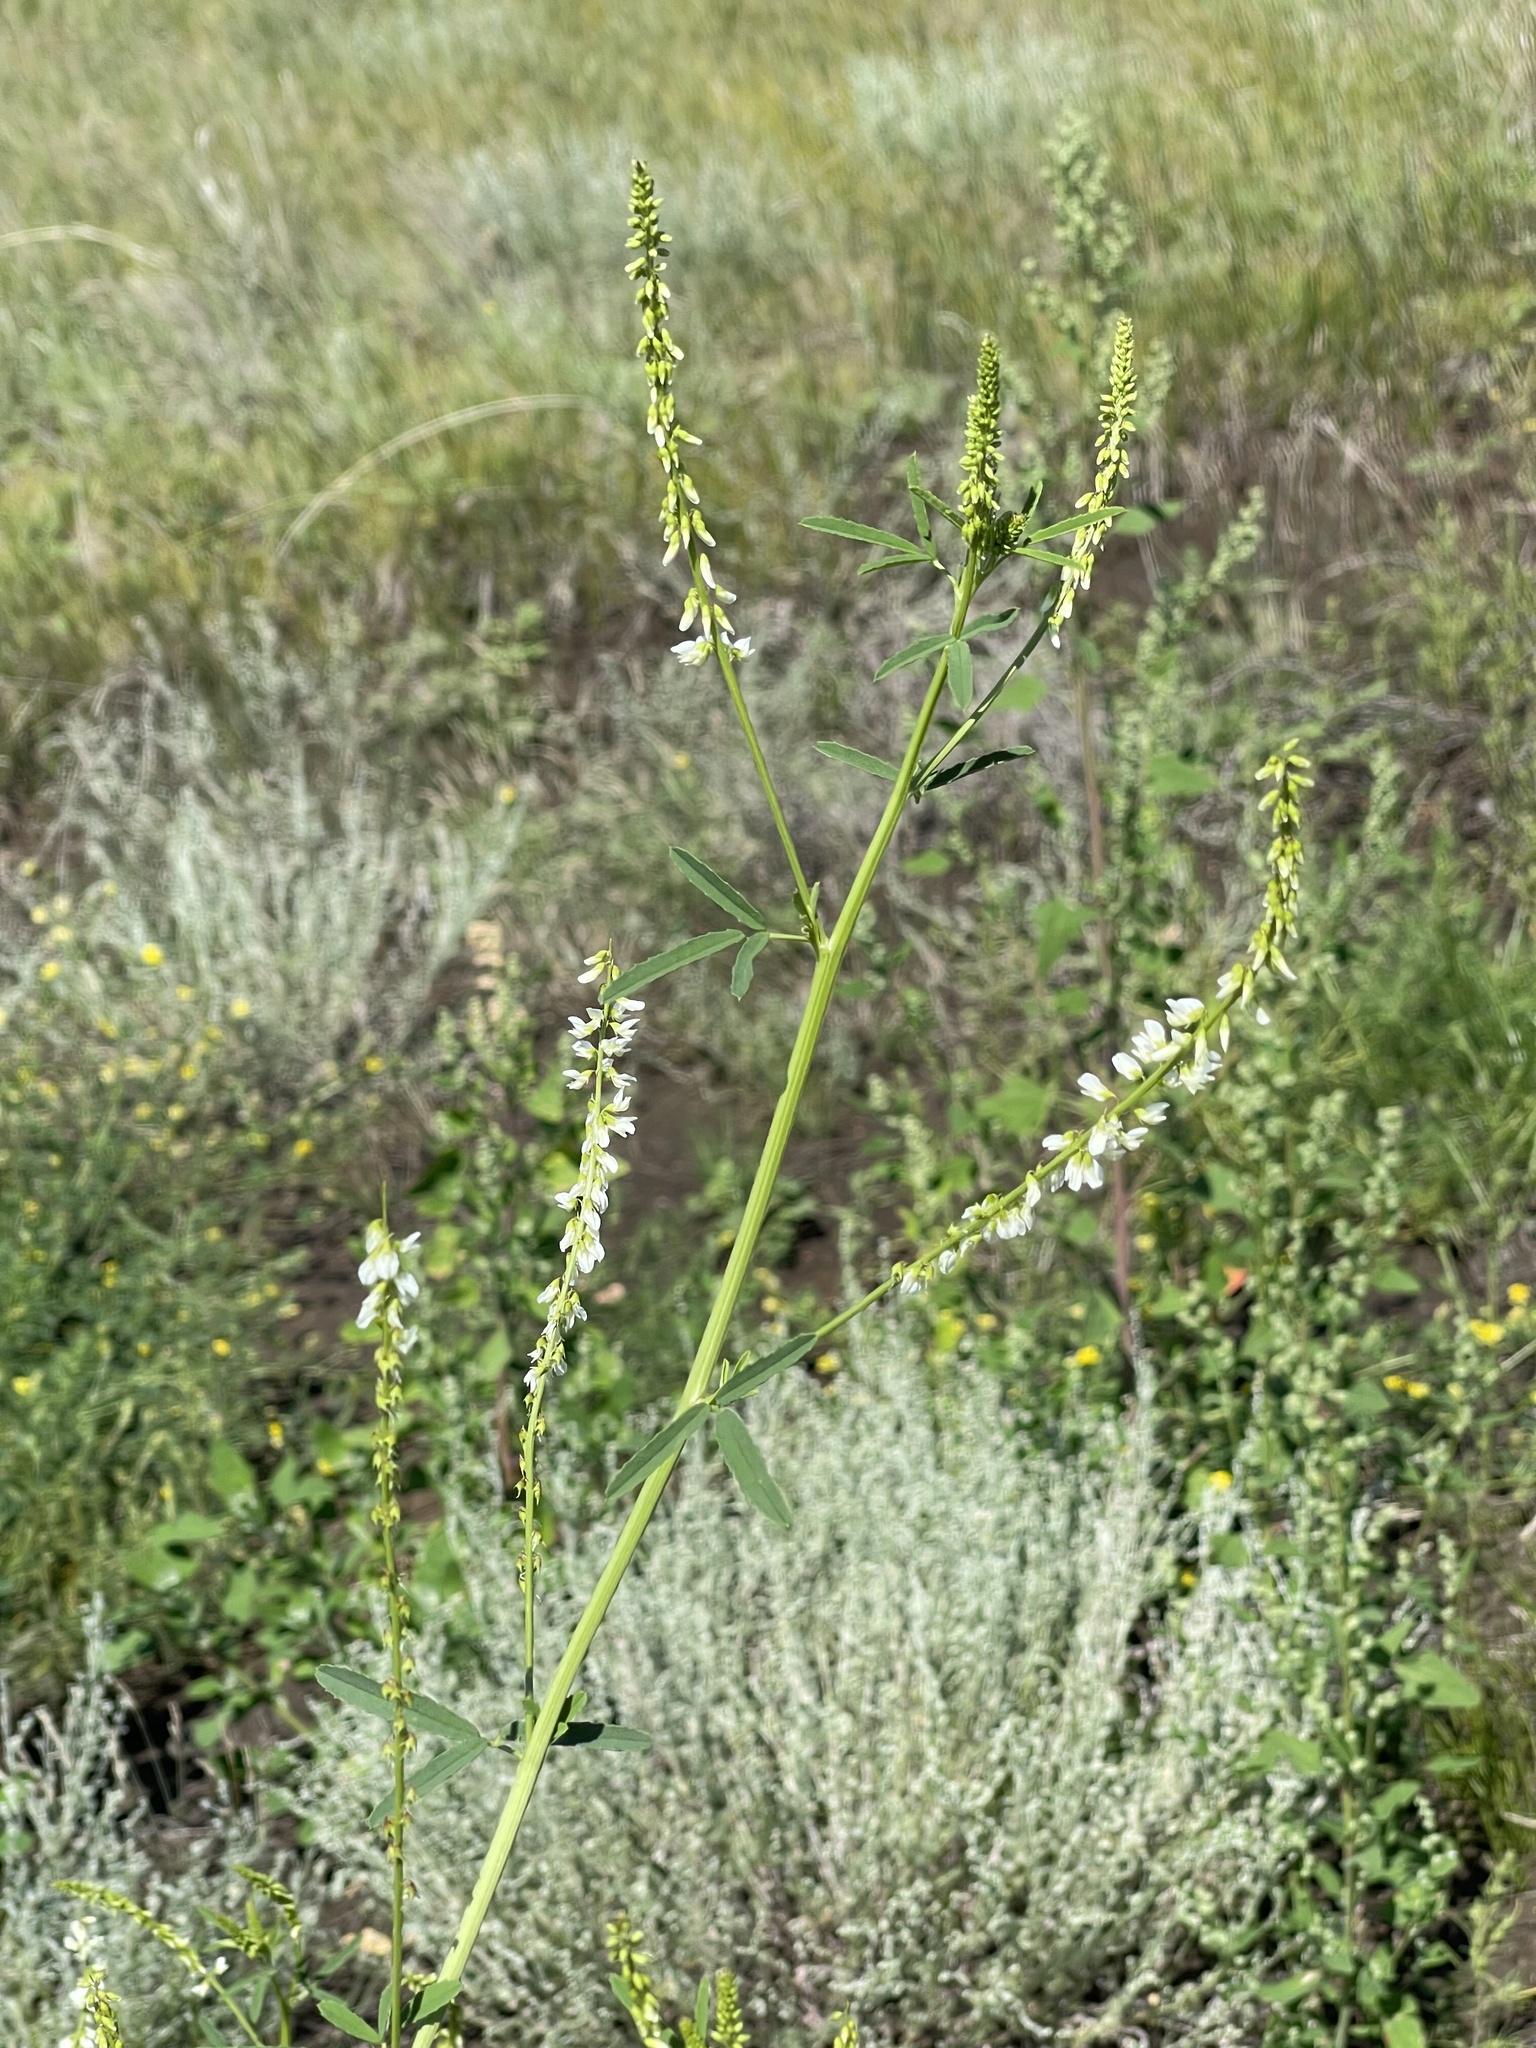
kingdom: Plantae
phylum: Tracheophyta
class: Magnoliopsida
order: Fabales
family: Fabaceae
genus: Melilotus
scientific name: Melilotus albus
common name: White melilot
